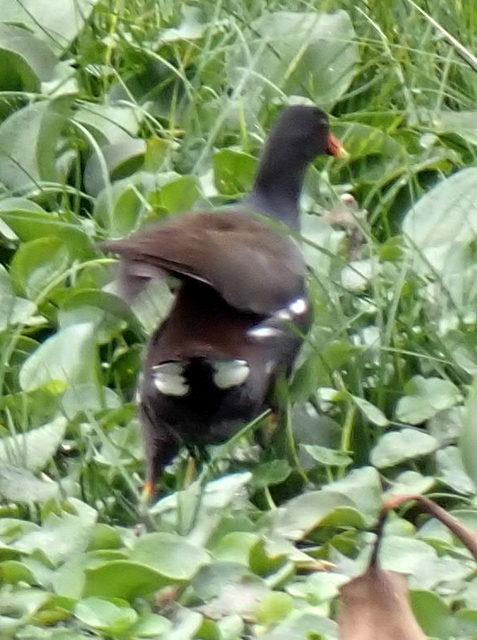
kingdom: Animalia
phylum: Chordata
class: Aves
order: Gruiformes
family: Rallidae
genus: Gallinula
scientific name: Gallinula chloropus
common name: Common moorhen
